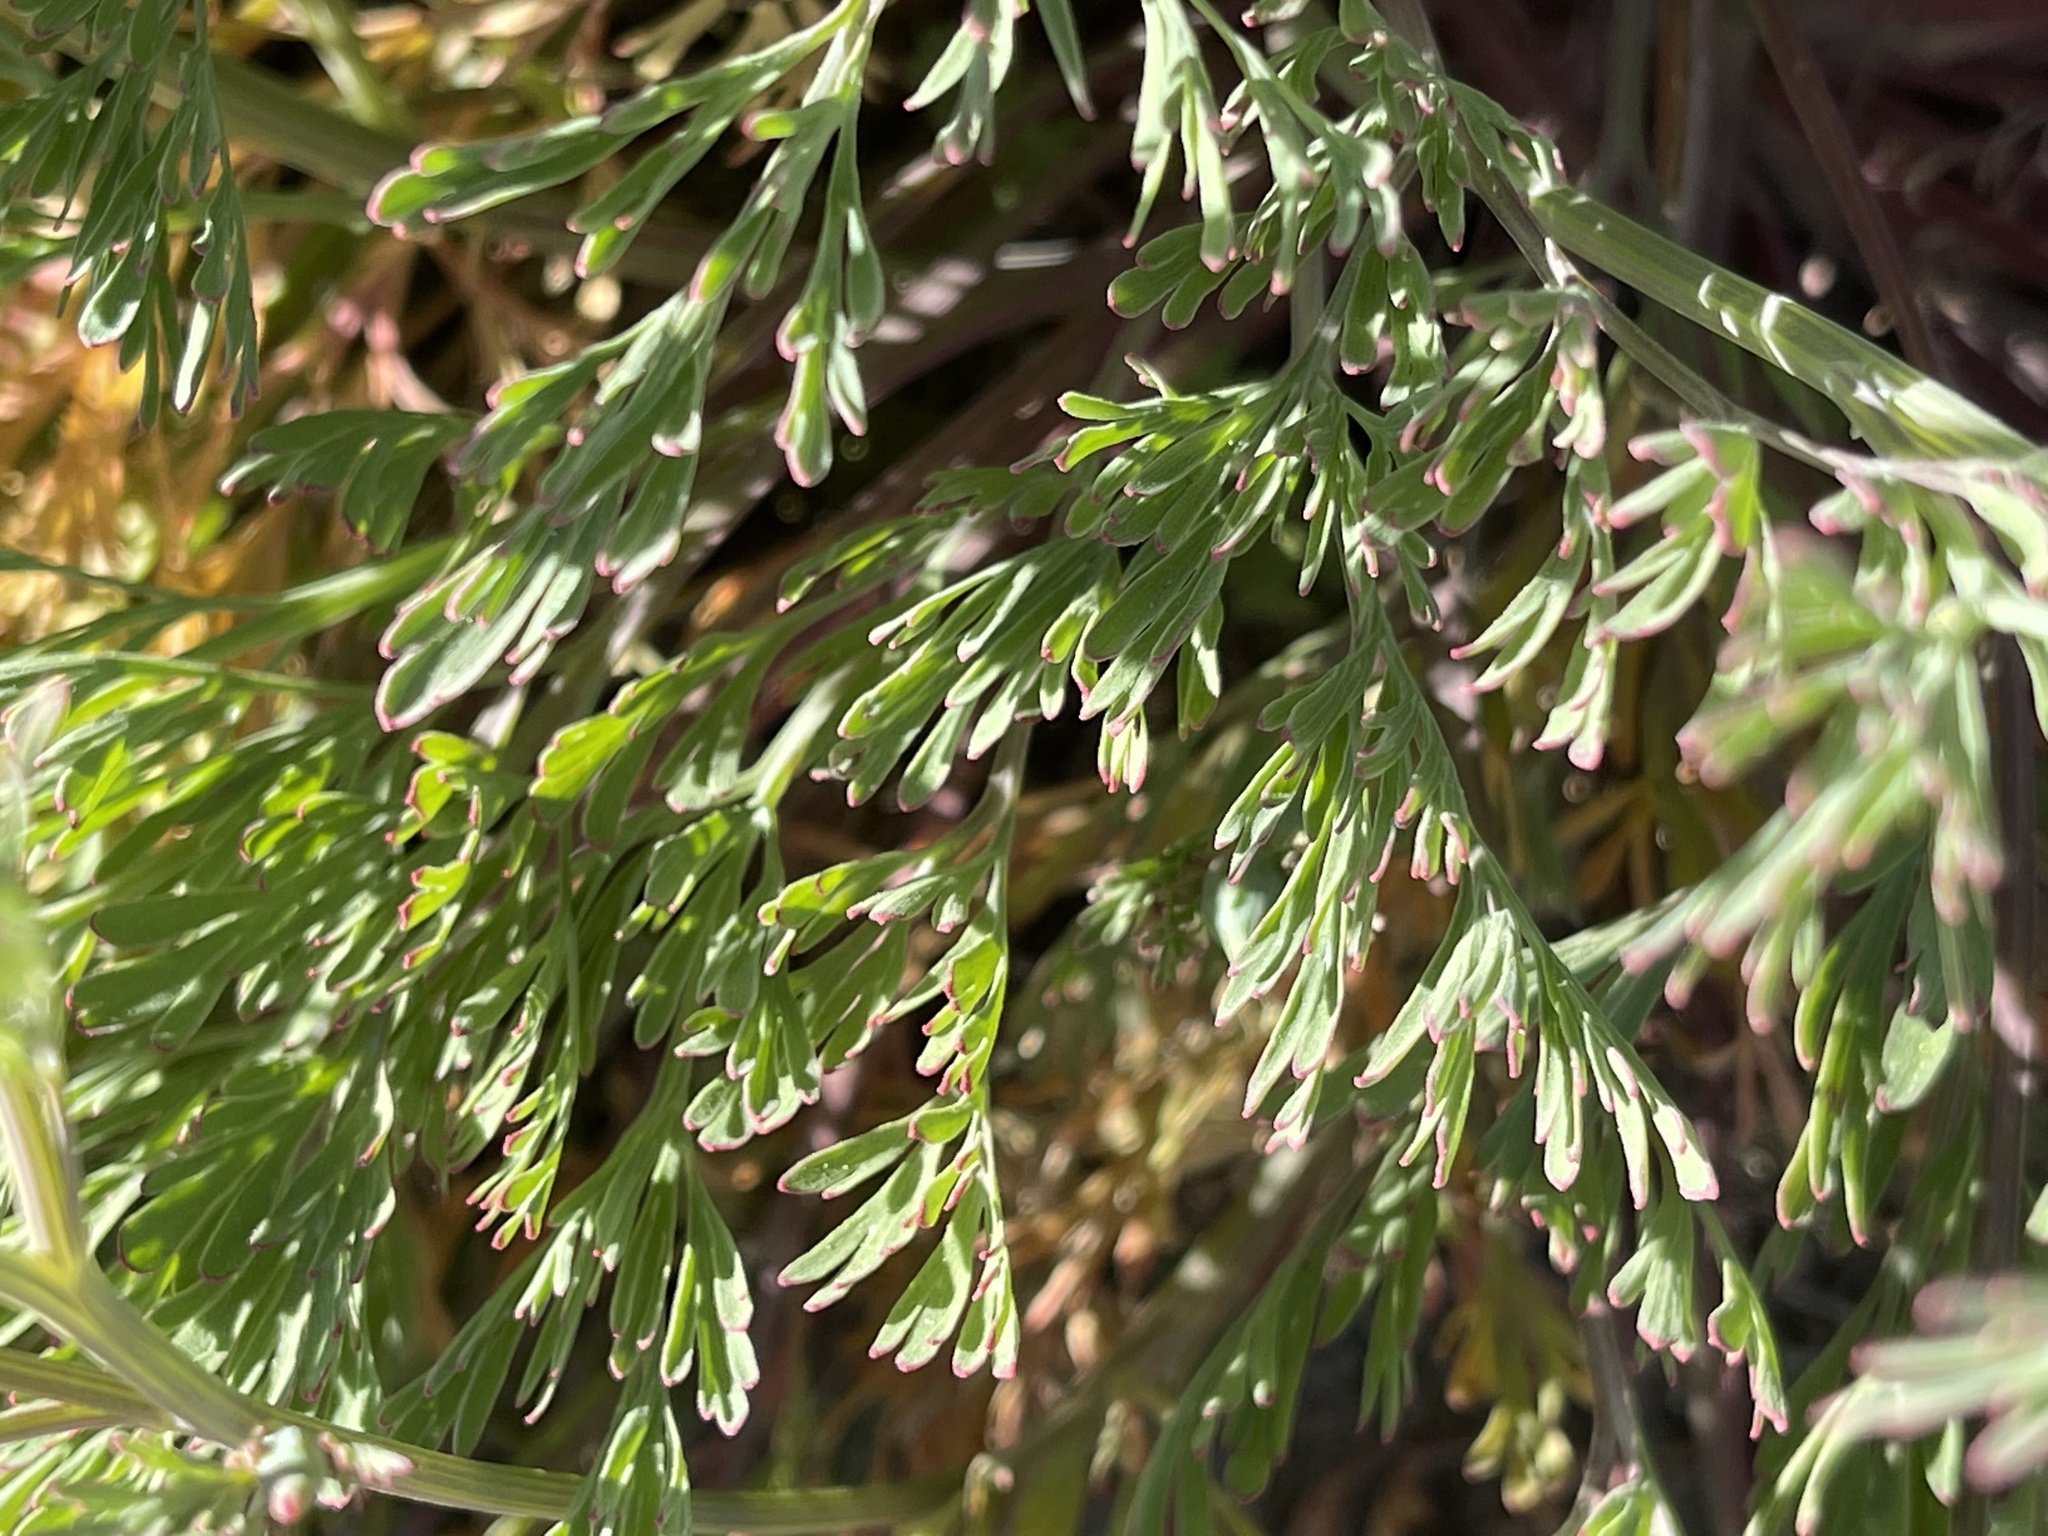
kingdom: Plantae
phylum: Tracheophyta
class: Magnoliopsida
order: Ranunculales
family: Papaveraceae
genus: Eschscholzia
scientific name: Eschscholzia californica
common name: California poppy
